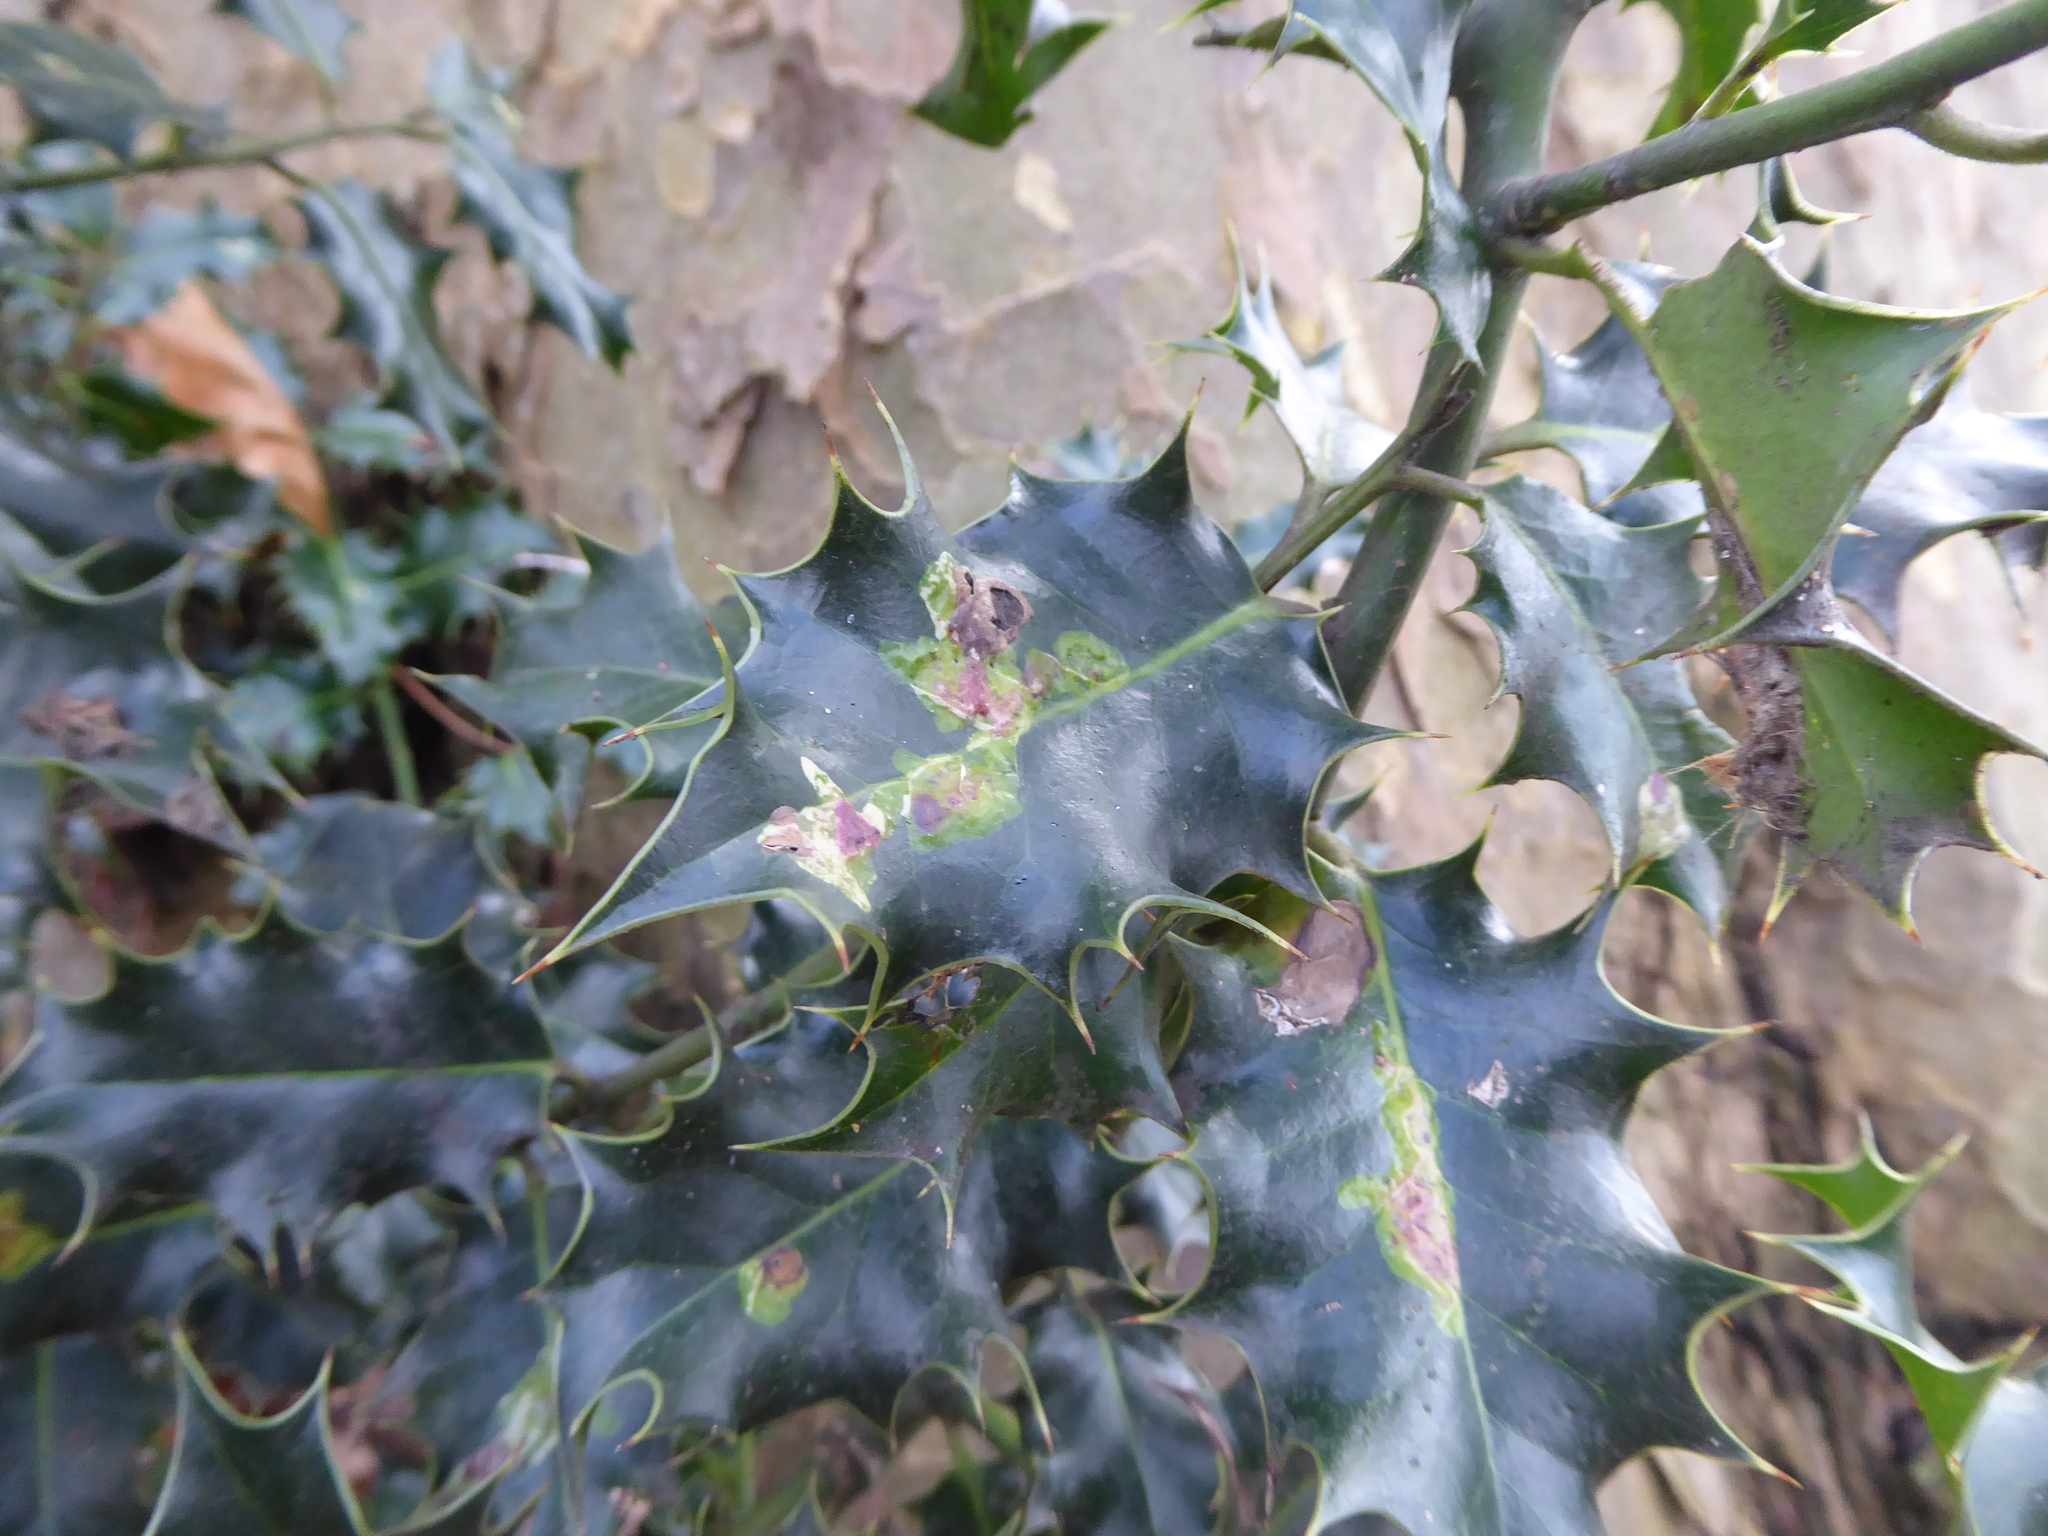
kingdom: Animalia
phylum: Arthropoda
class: Insecta
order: Diptera
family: Agromyzidae
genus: Phytomyza
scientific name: Phytomyza ilicis
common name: Holly leafminer
